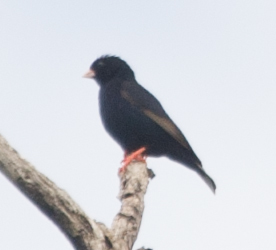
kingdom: Animalia
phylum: Chordata
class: Aves
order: Passeriformes
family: Viduidae
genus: Vidua
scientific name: Vidua chalybeata
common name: Village indigobird
